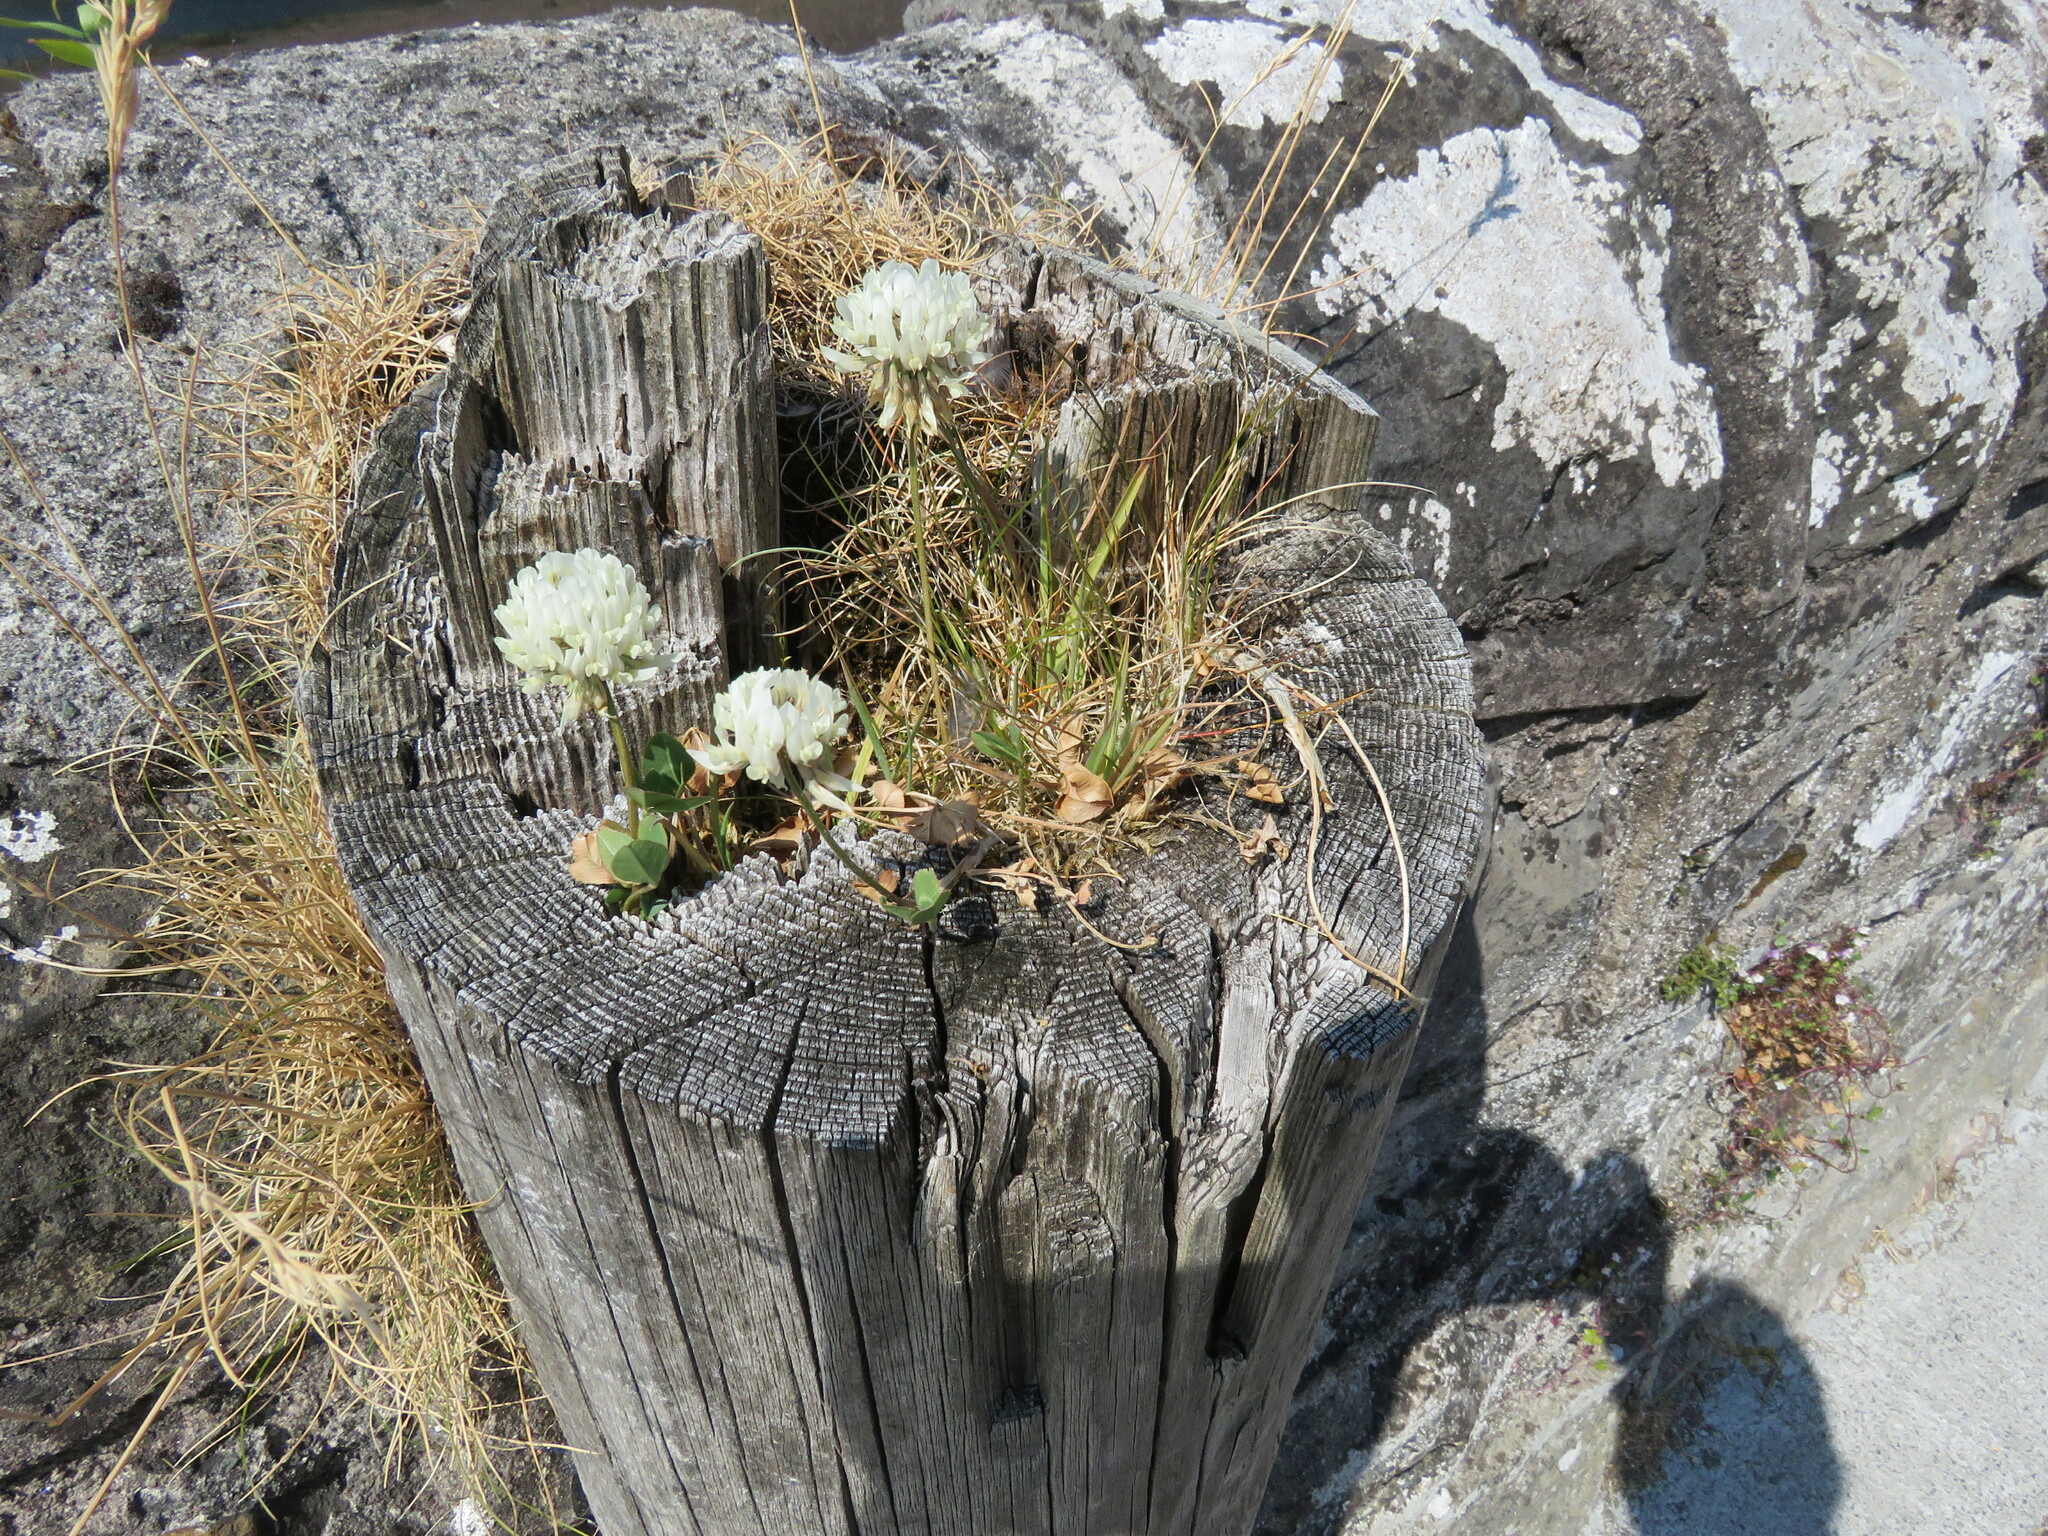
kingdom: Plantae
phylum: Tracheophyta
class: Magnoliopsida
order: Fabales
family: Fabaceae
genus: Trifolium
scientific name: Trifolium repens
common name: White clover
